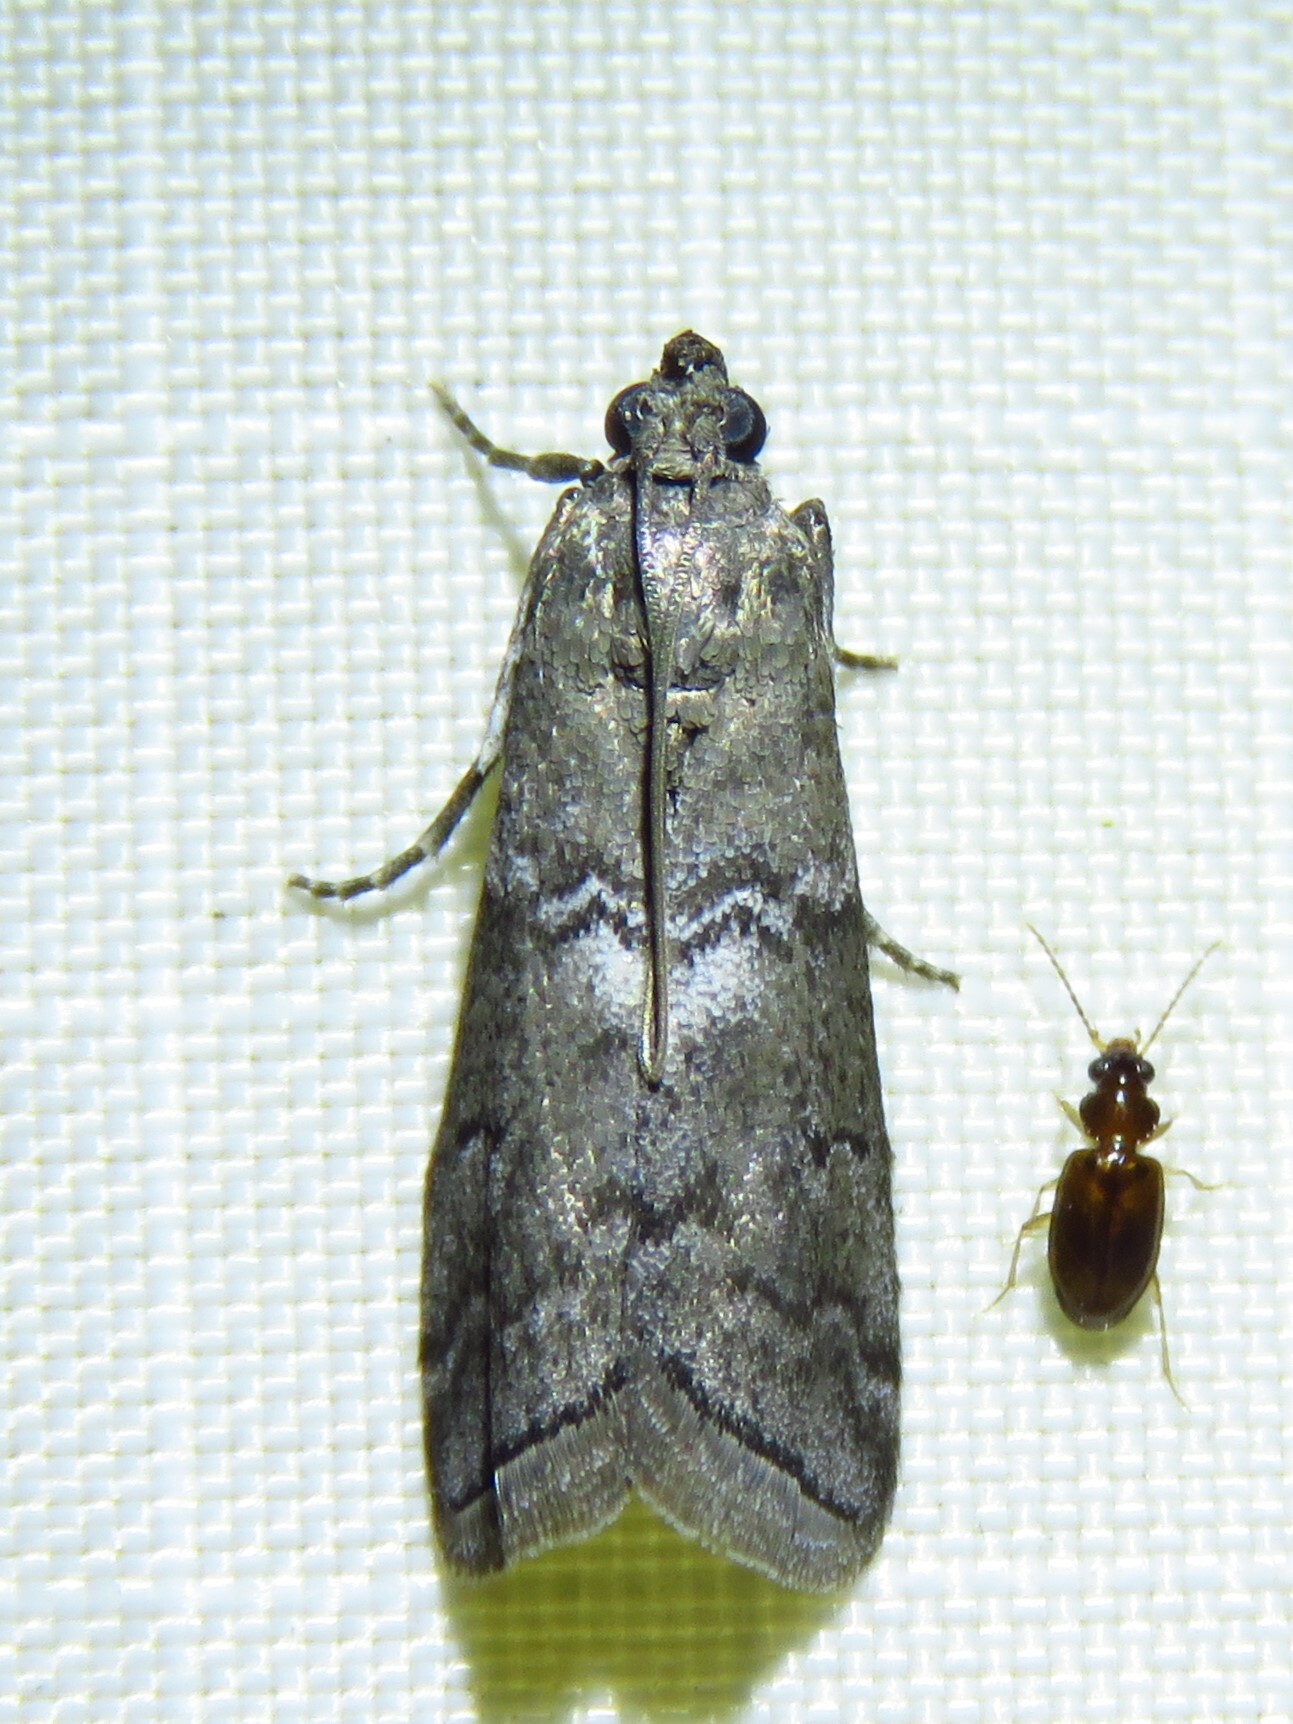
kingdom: Animalia
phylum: Arthropoda
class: Insecta
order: Lepidoptera
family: Pyralidae
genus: Ancylosis
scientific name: Ancylosis Canarsia ulmiarrosorella
